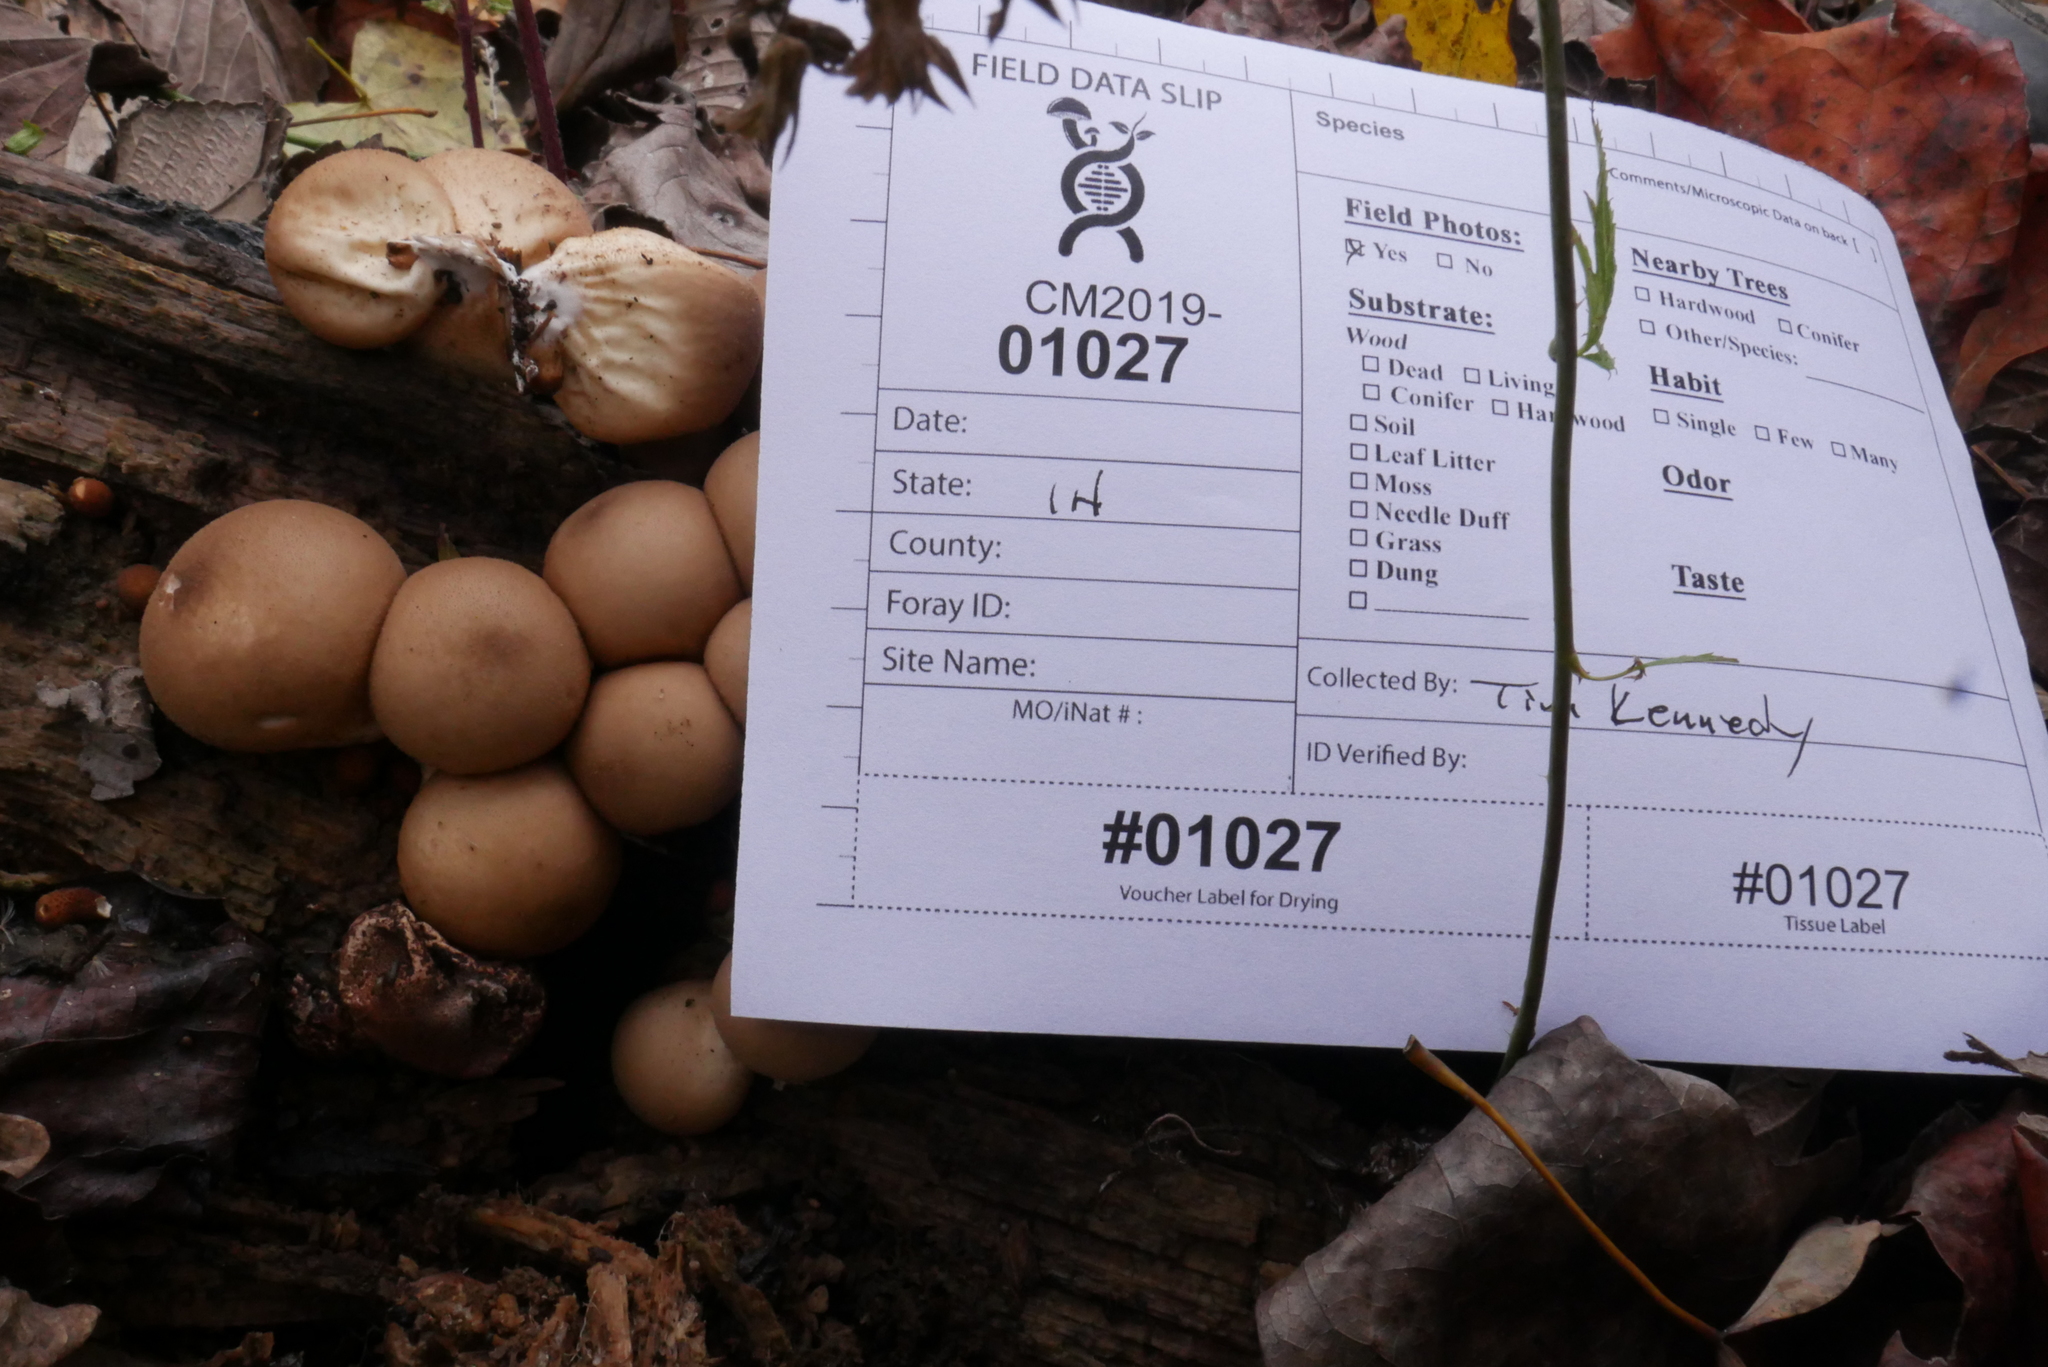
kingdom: Fungi
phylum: Basidiomycota
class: Agaricomycetes
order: Agaricales
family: Lycoperdaceae
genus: Apioperdon
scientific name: Apioperdon pyriforme
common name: Pear-shaped puffball
